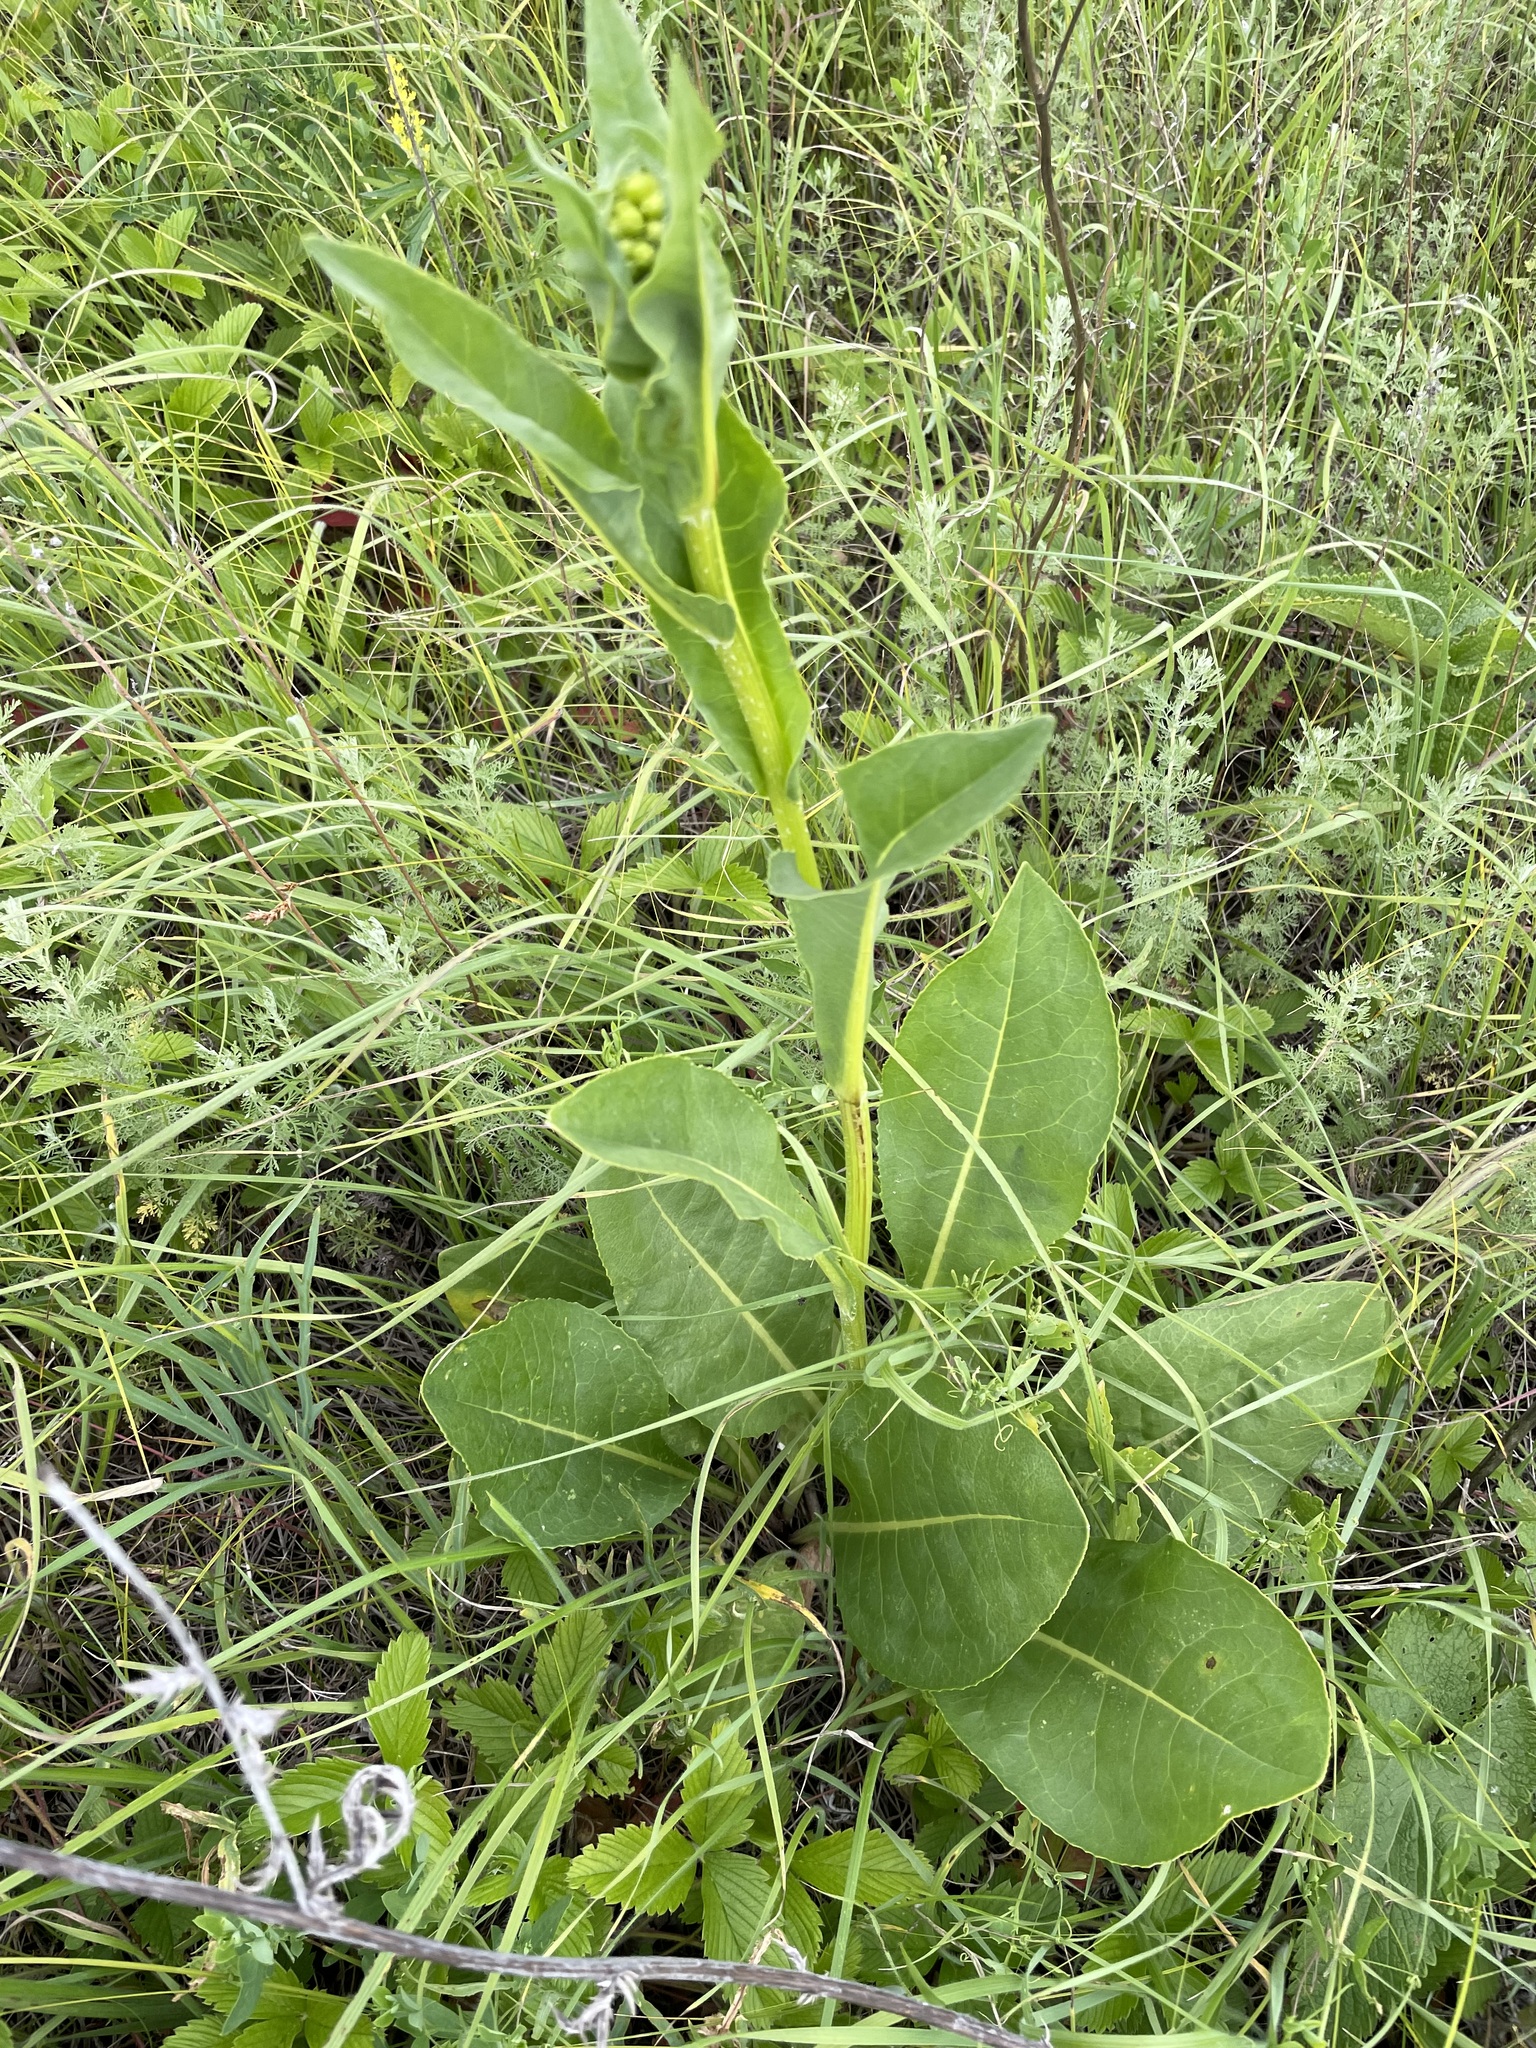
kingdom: Plantae
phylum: Tracheophyta
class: Magnoliopsida
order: Asterales
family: Asteraceae
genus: Senecio
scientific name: Senecio doria
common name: Golden ragwort
